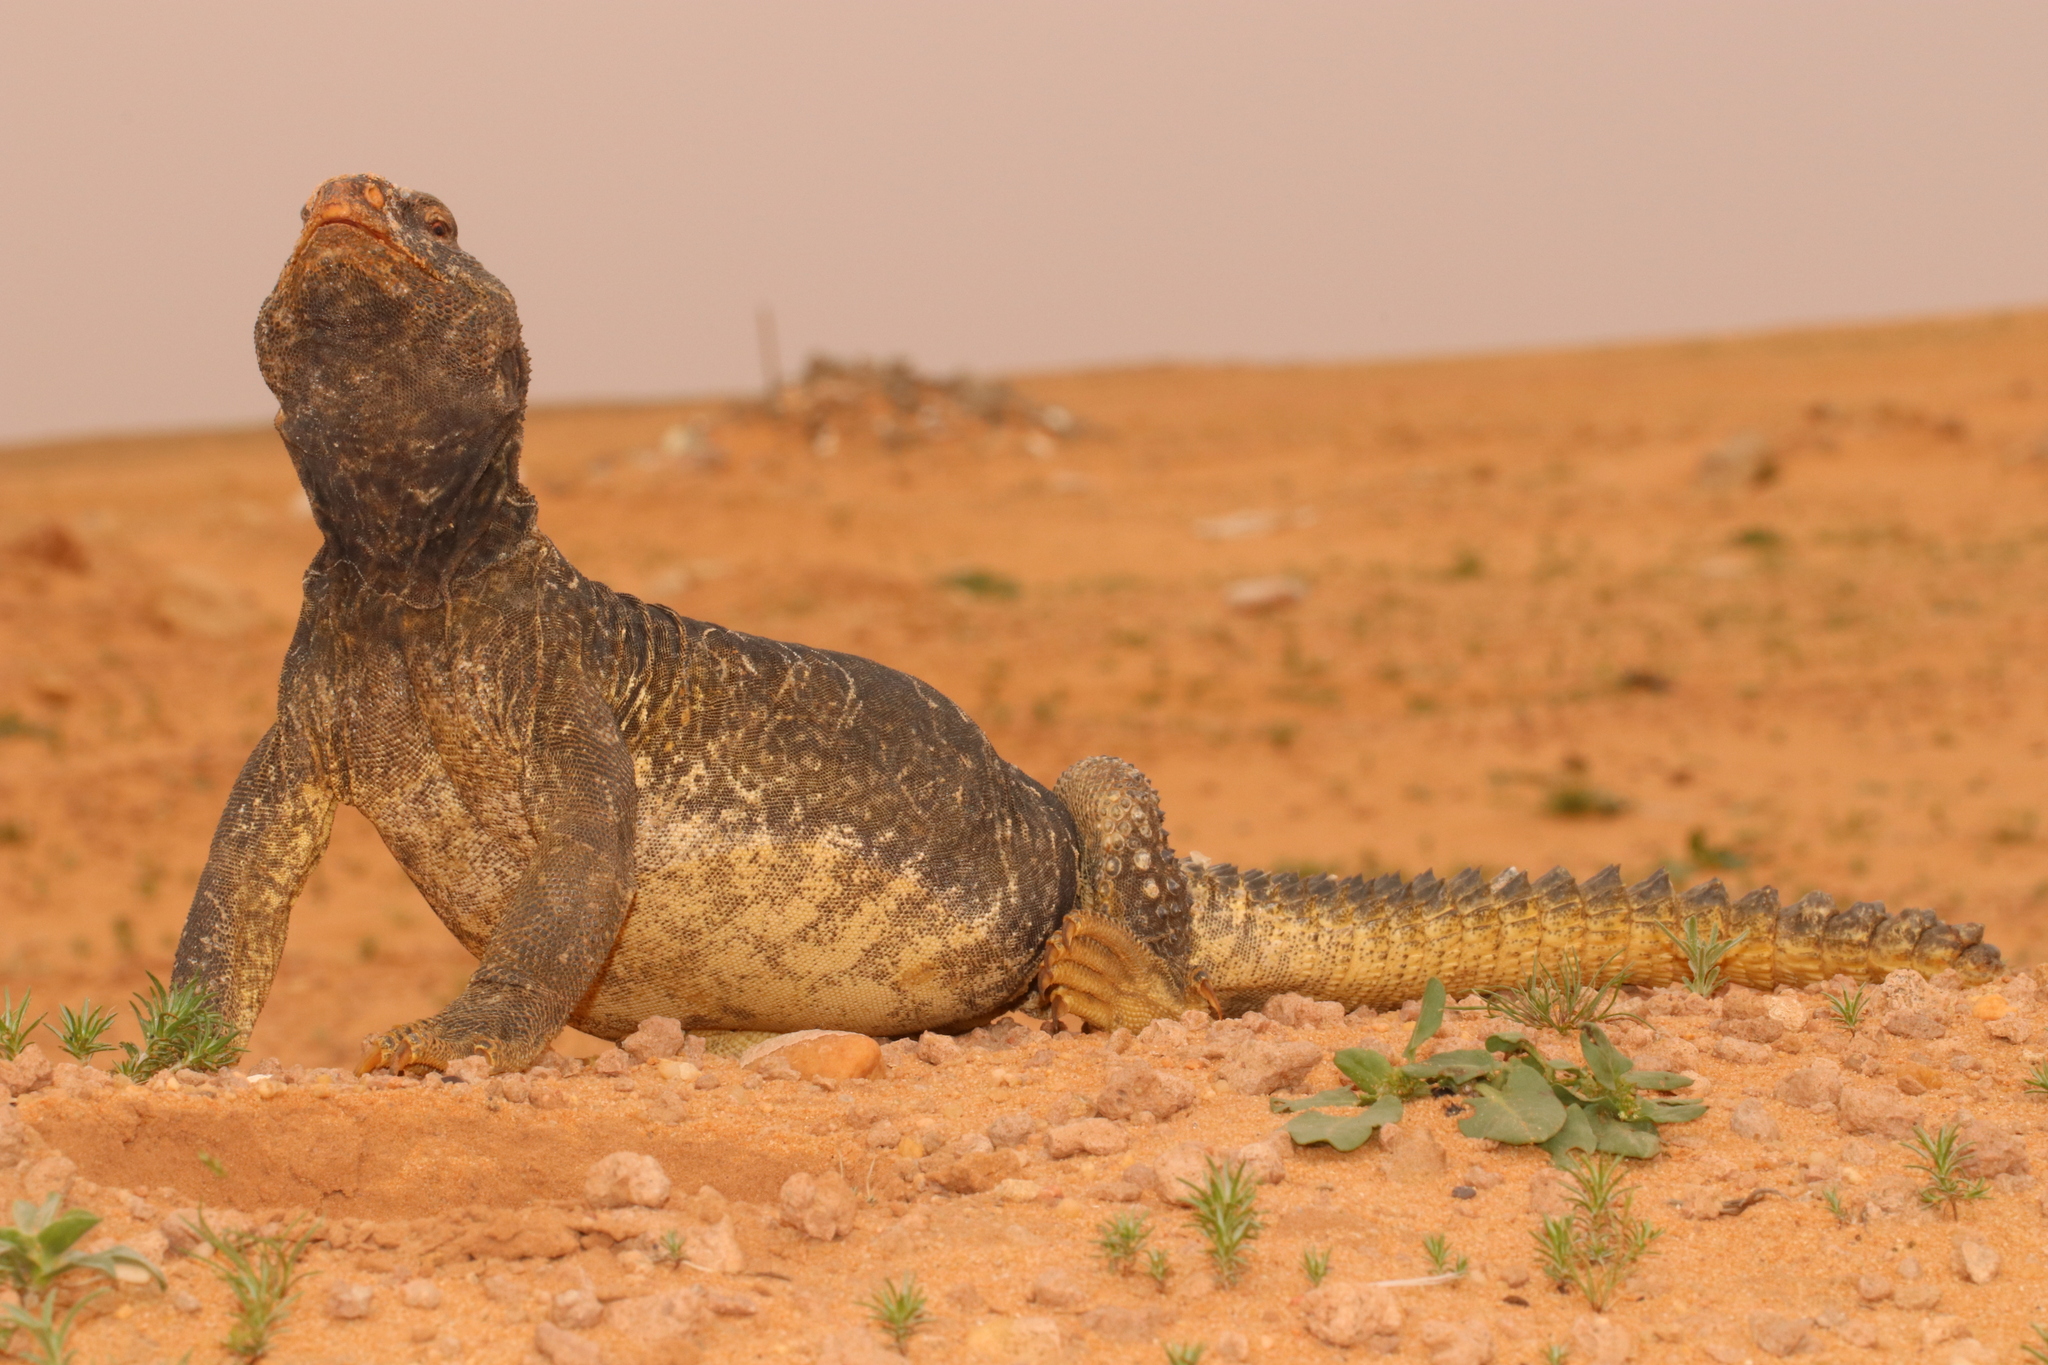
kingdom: Animalia
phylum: Chordata
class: Squamata
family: Agamidae
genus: Uromastyx
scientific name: Uromastyx aegyptia
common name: Egyptian mastigure
